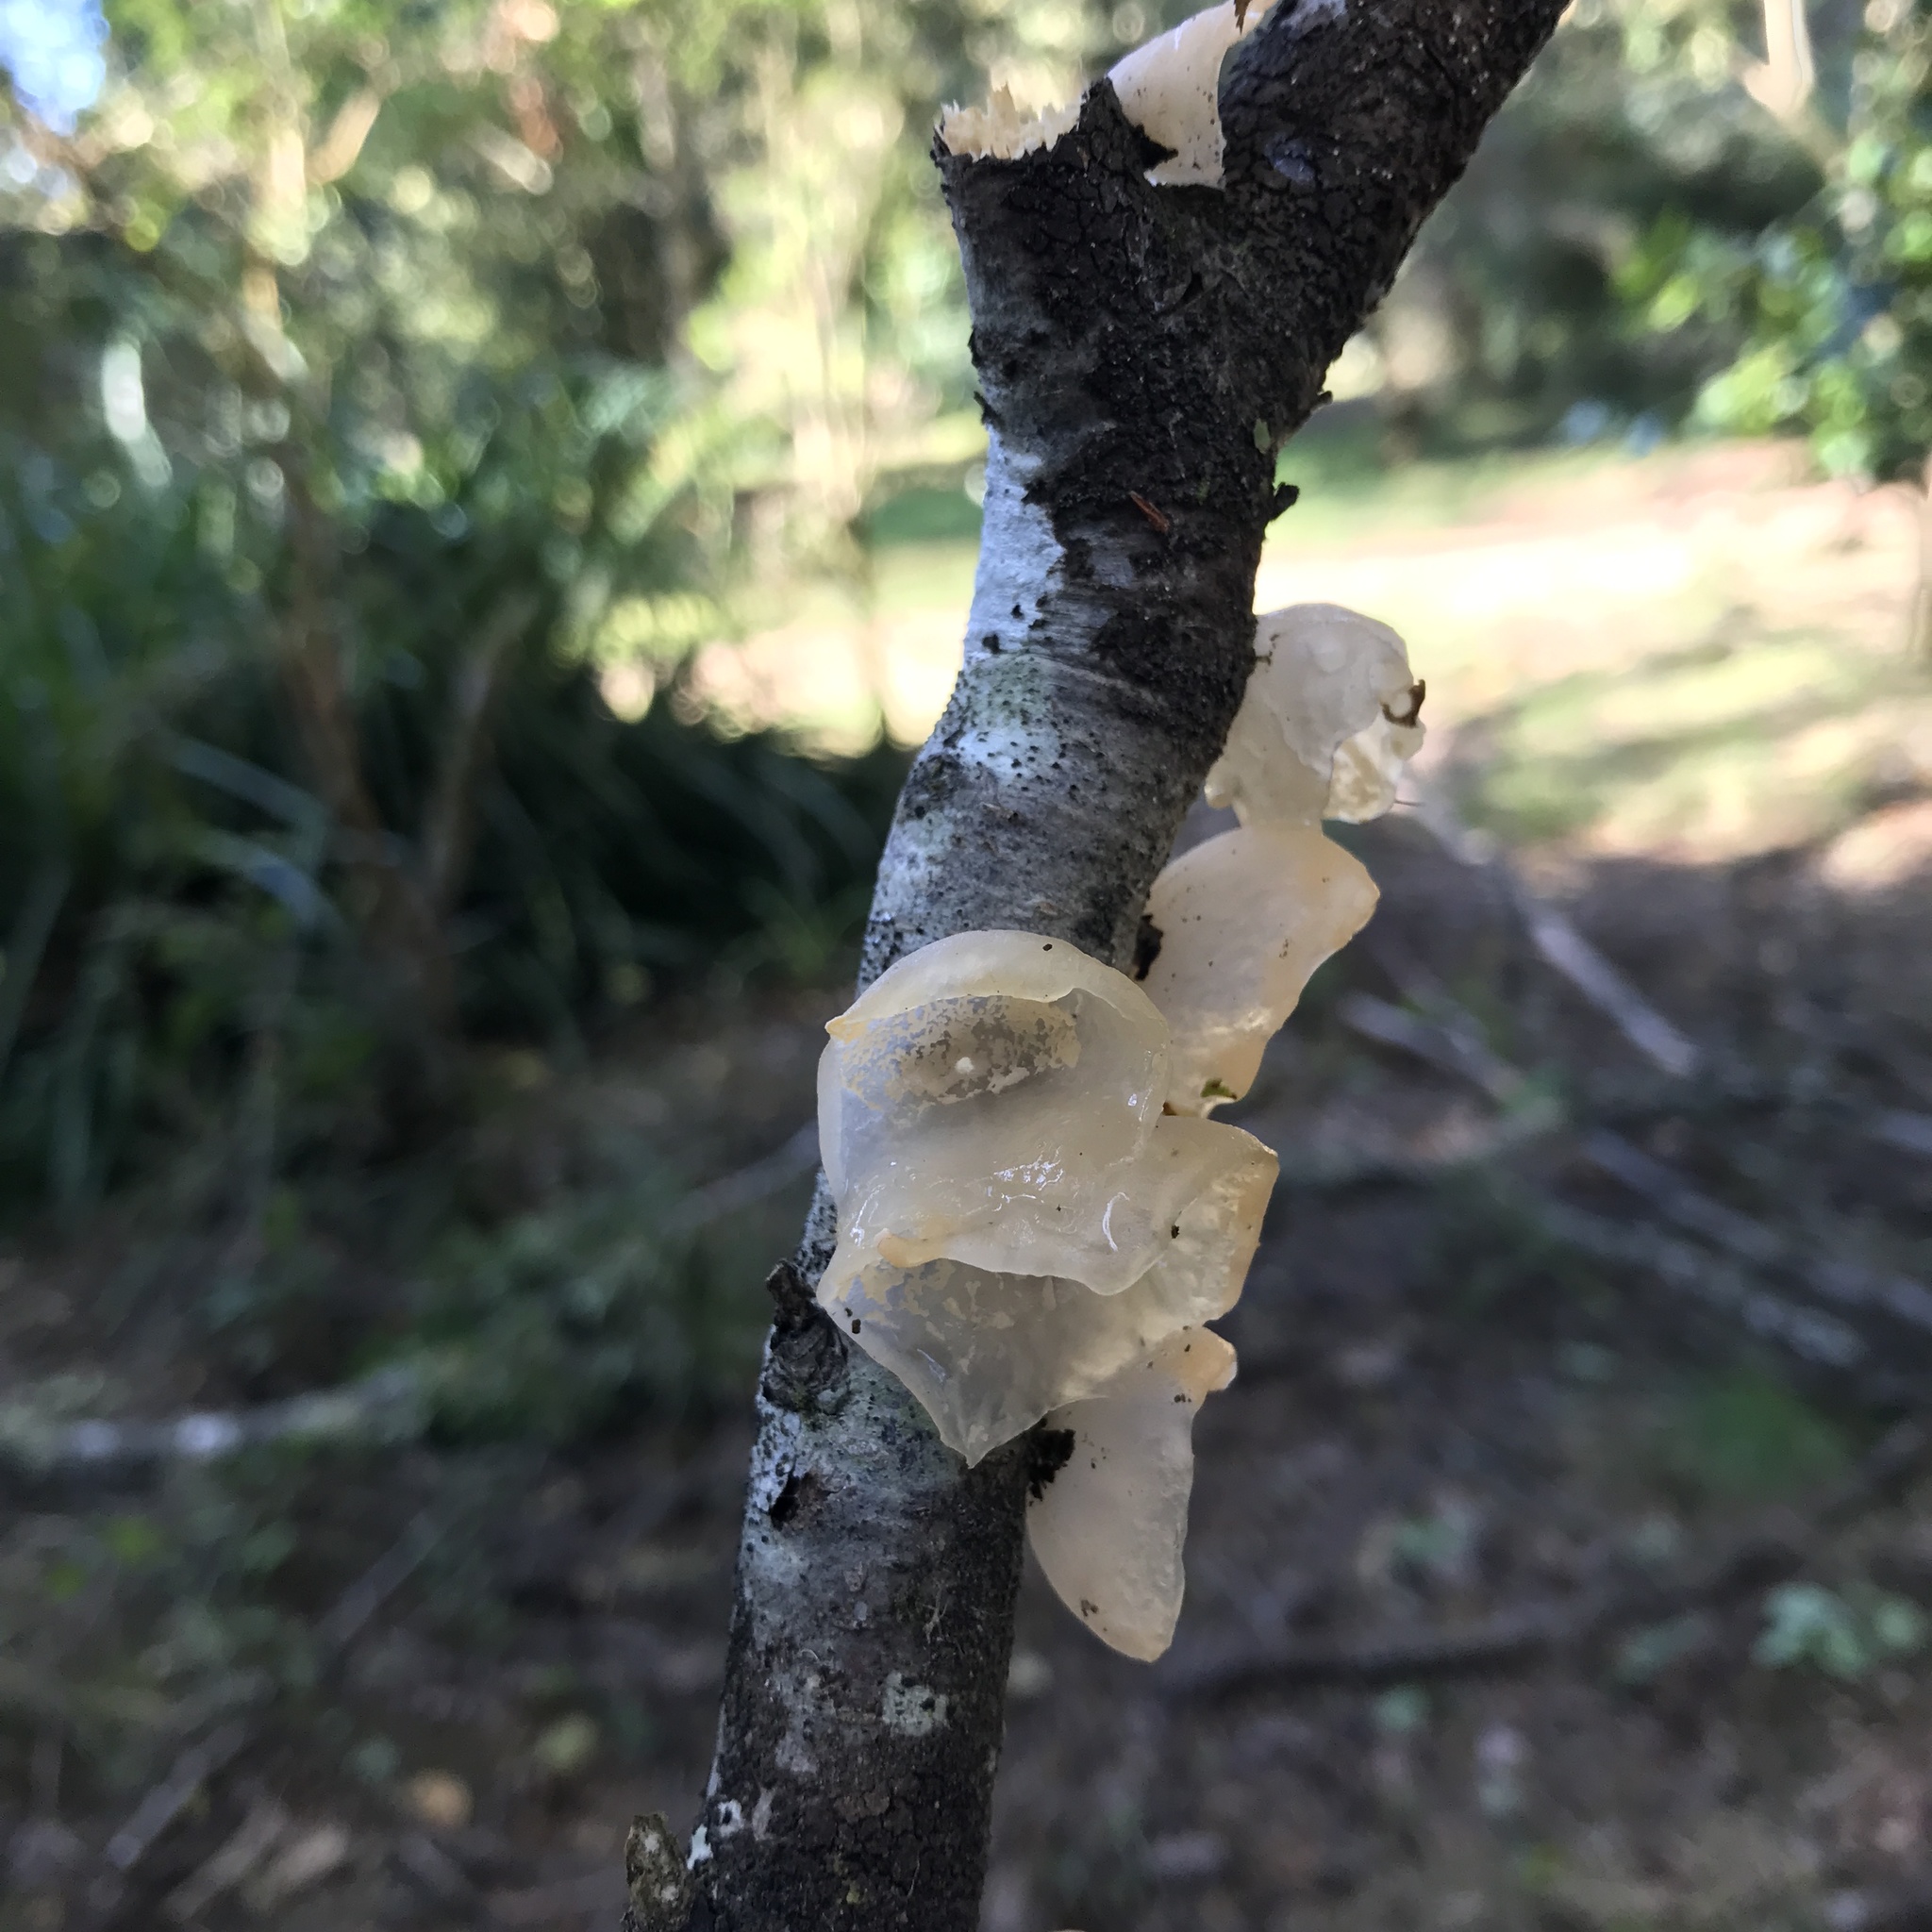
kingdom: Fungi
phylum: Basidiomycota
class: Agaricomycetes
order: Russulales
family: Stereaceae
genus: Aleurodiscus
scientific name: Aleurodiscus vitellinus
